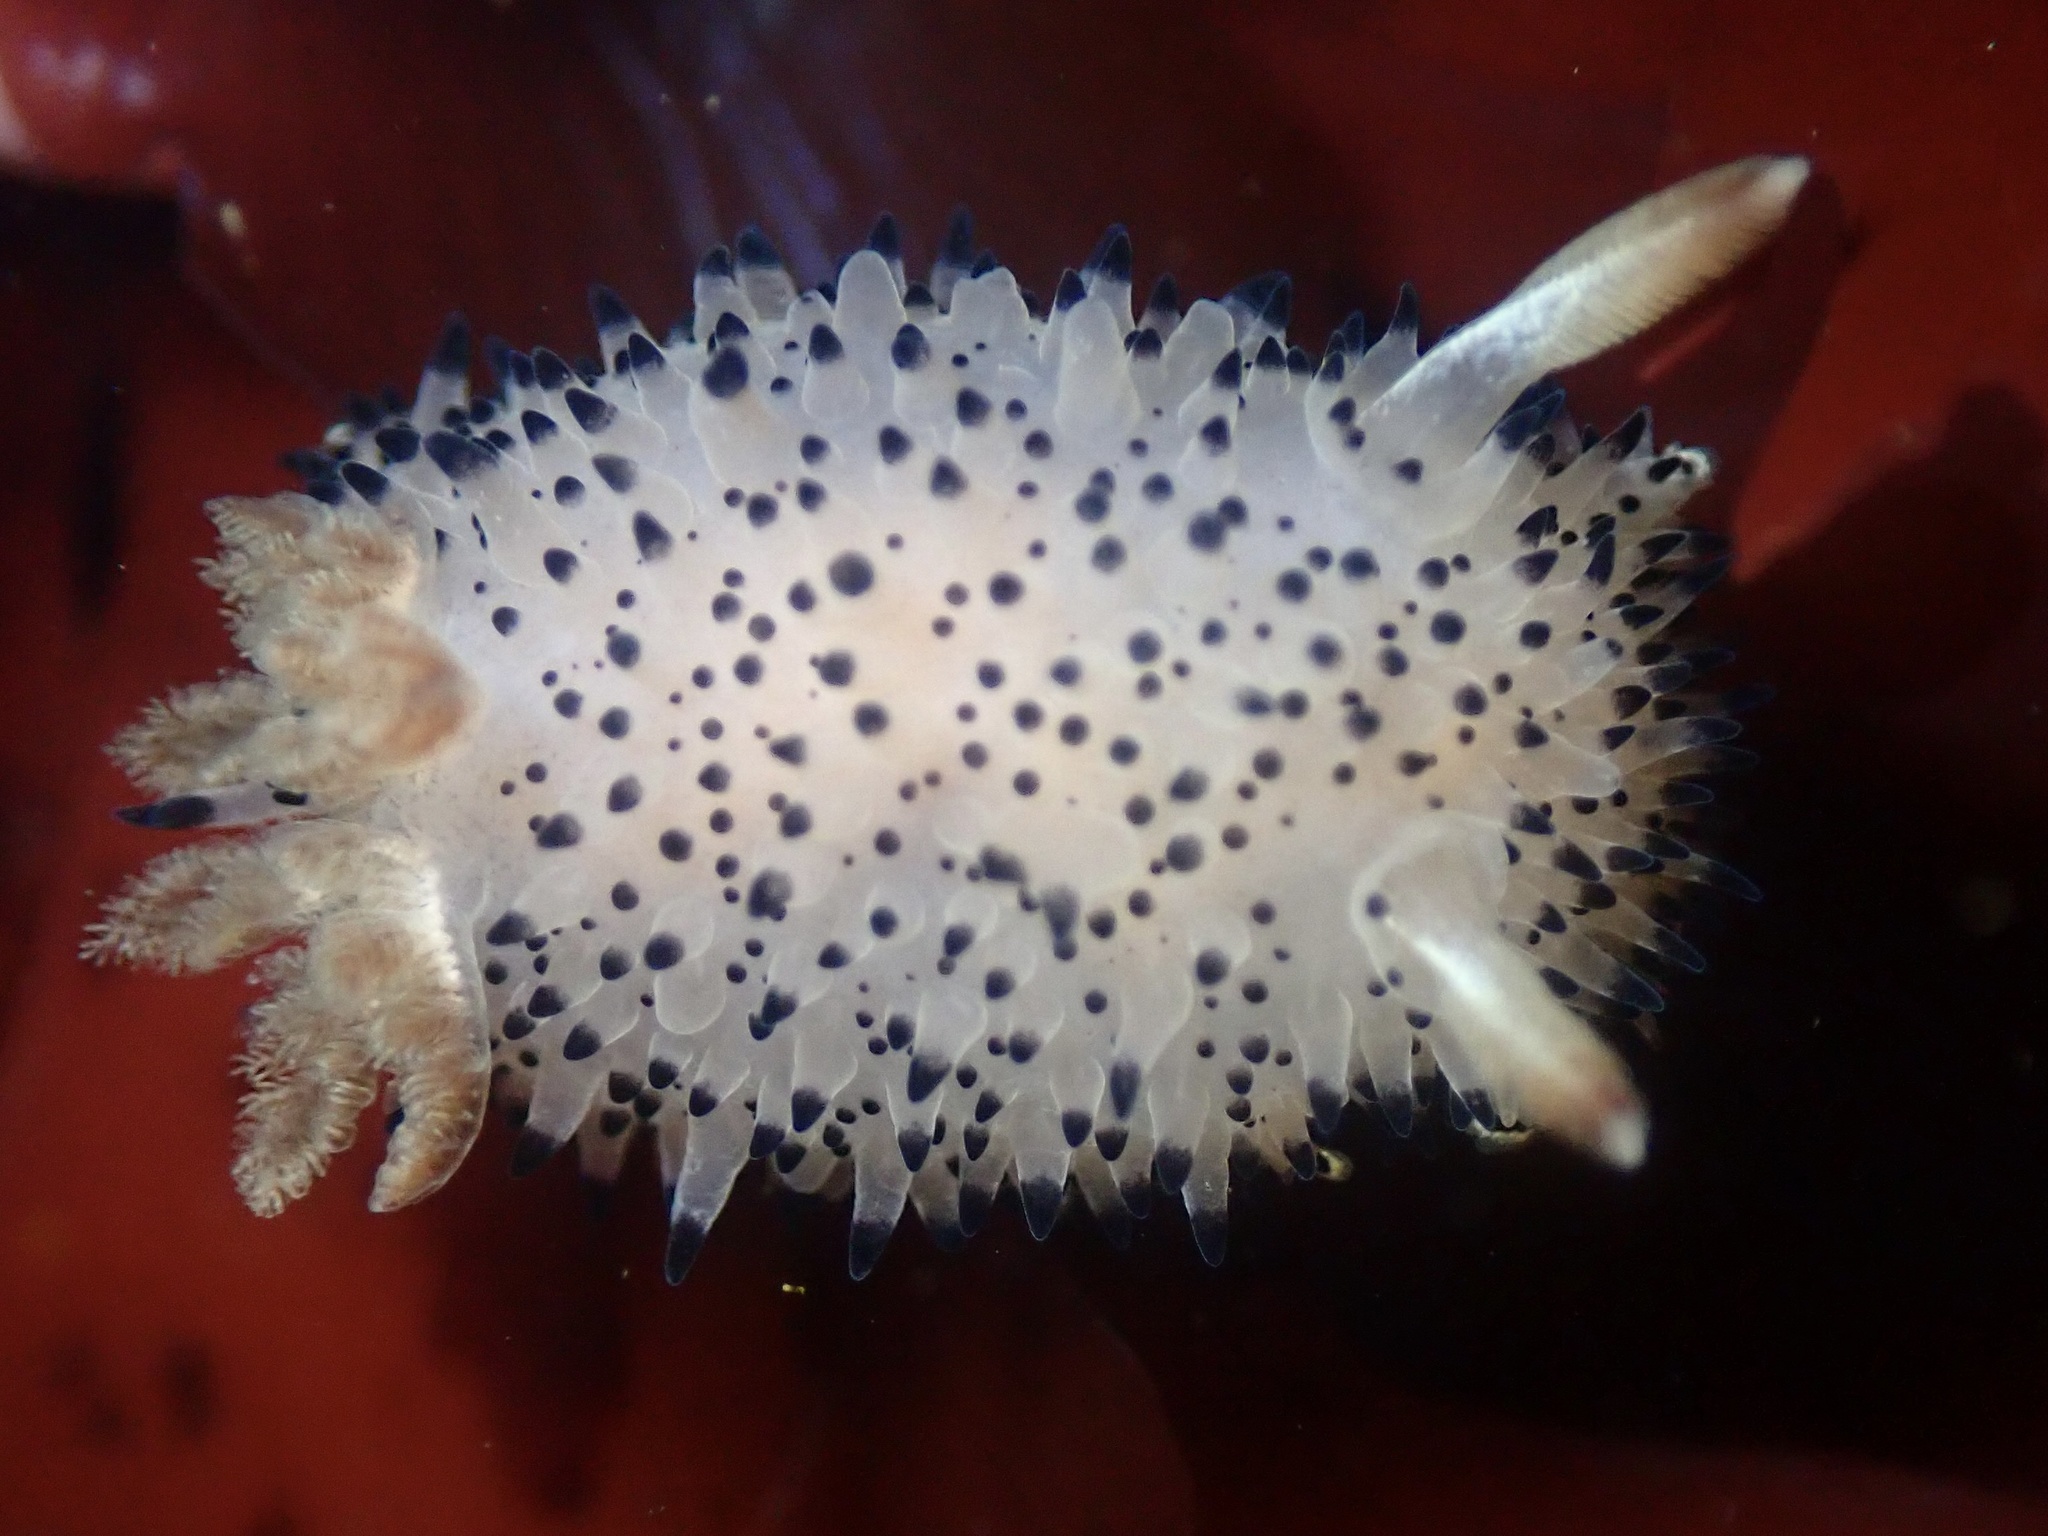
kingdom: Animalia
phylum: Mollusca
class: Gastropoda
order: Nudibranchia
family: Onchidorididae
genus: Acanthodoris
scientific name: Acanthodoris rhodoceras
